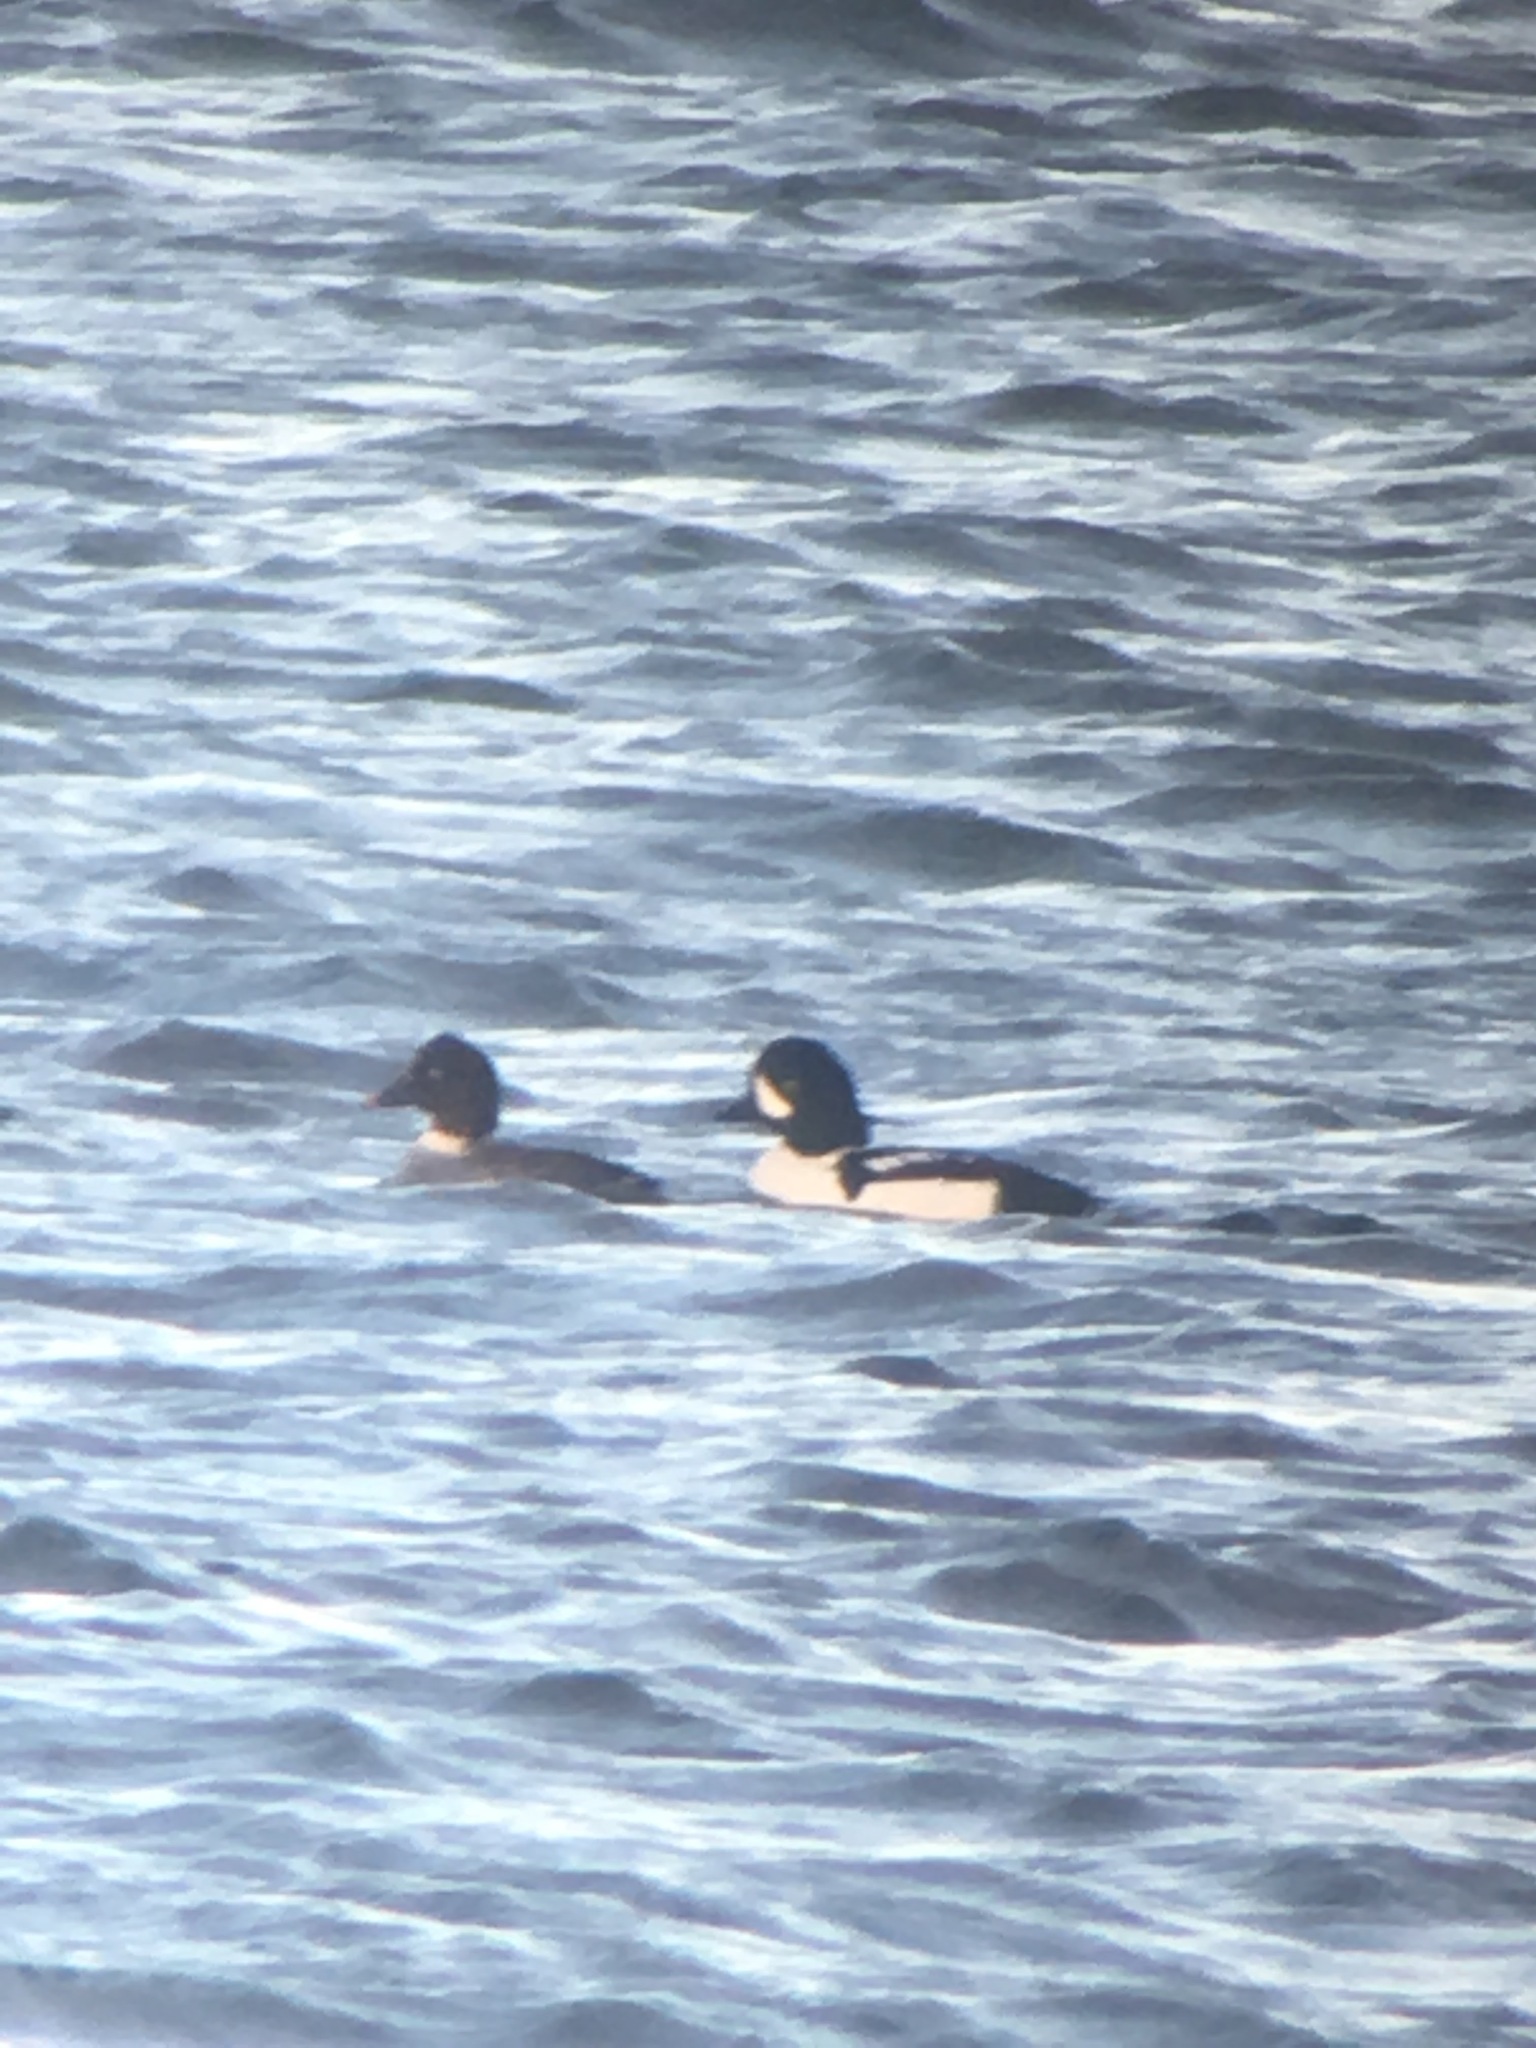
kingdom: Animalia
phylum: Chordata
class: Aves
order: Anseriformes
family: Anatidae
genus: Bucephala
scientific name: Bucephala islandica
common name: Barrow's goldeneye
